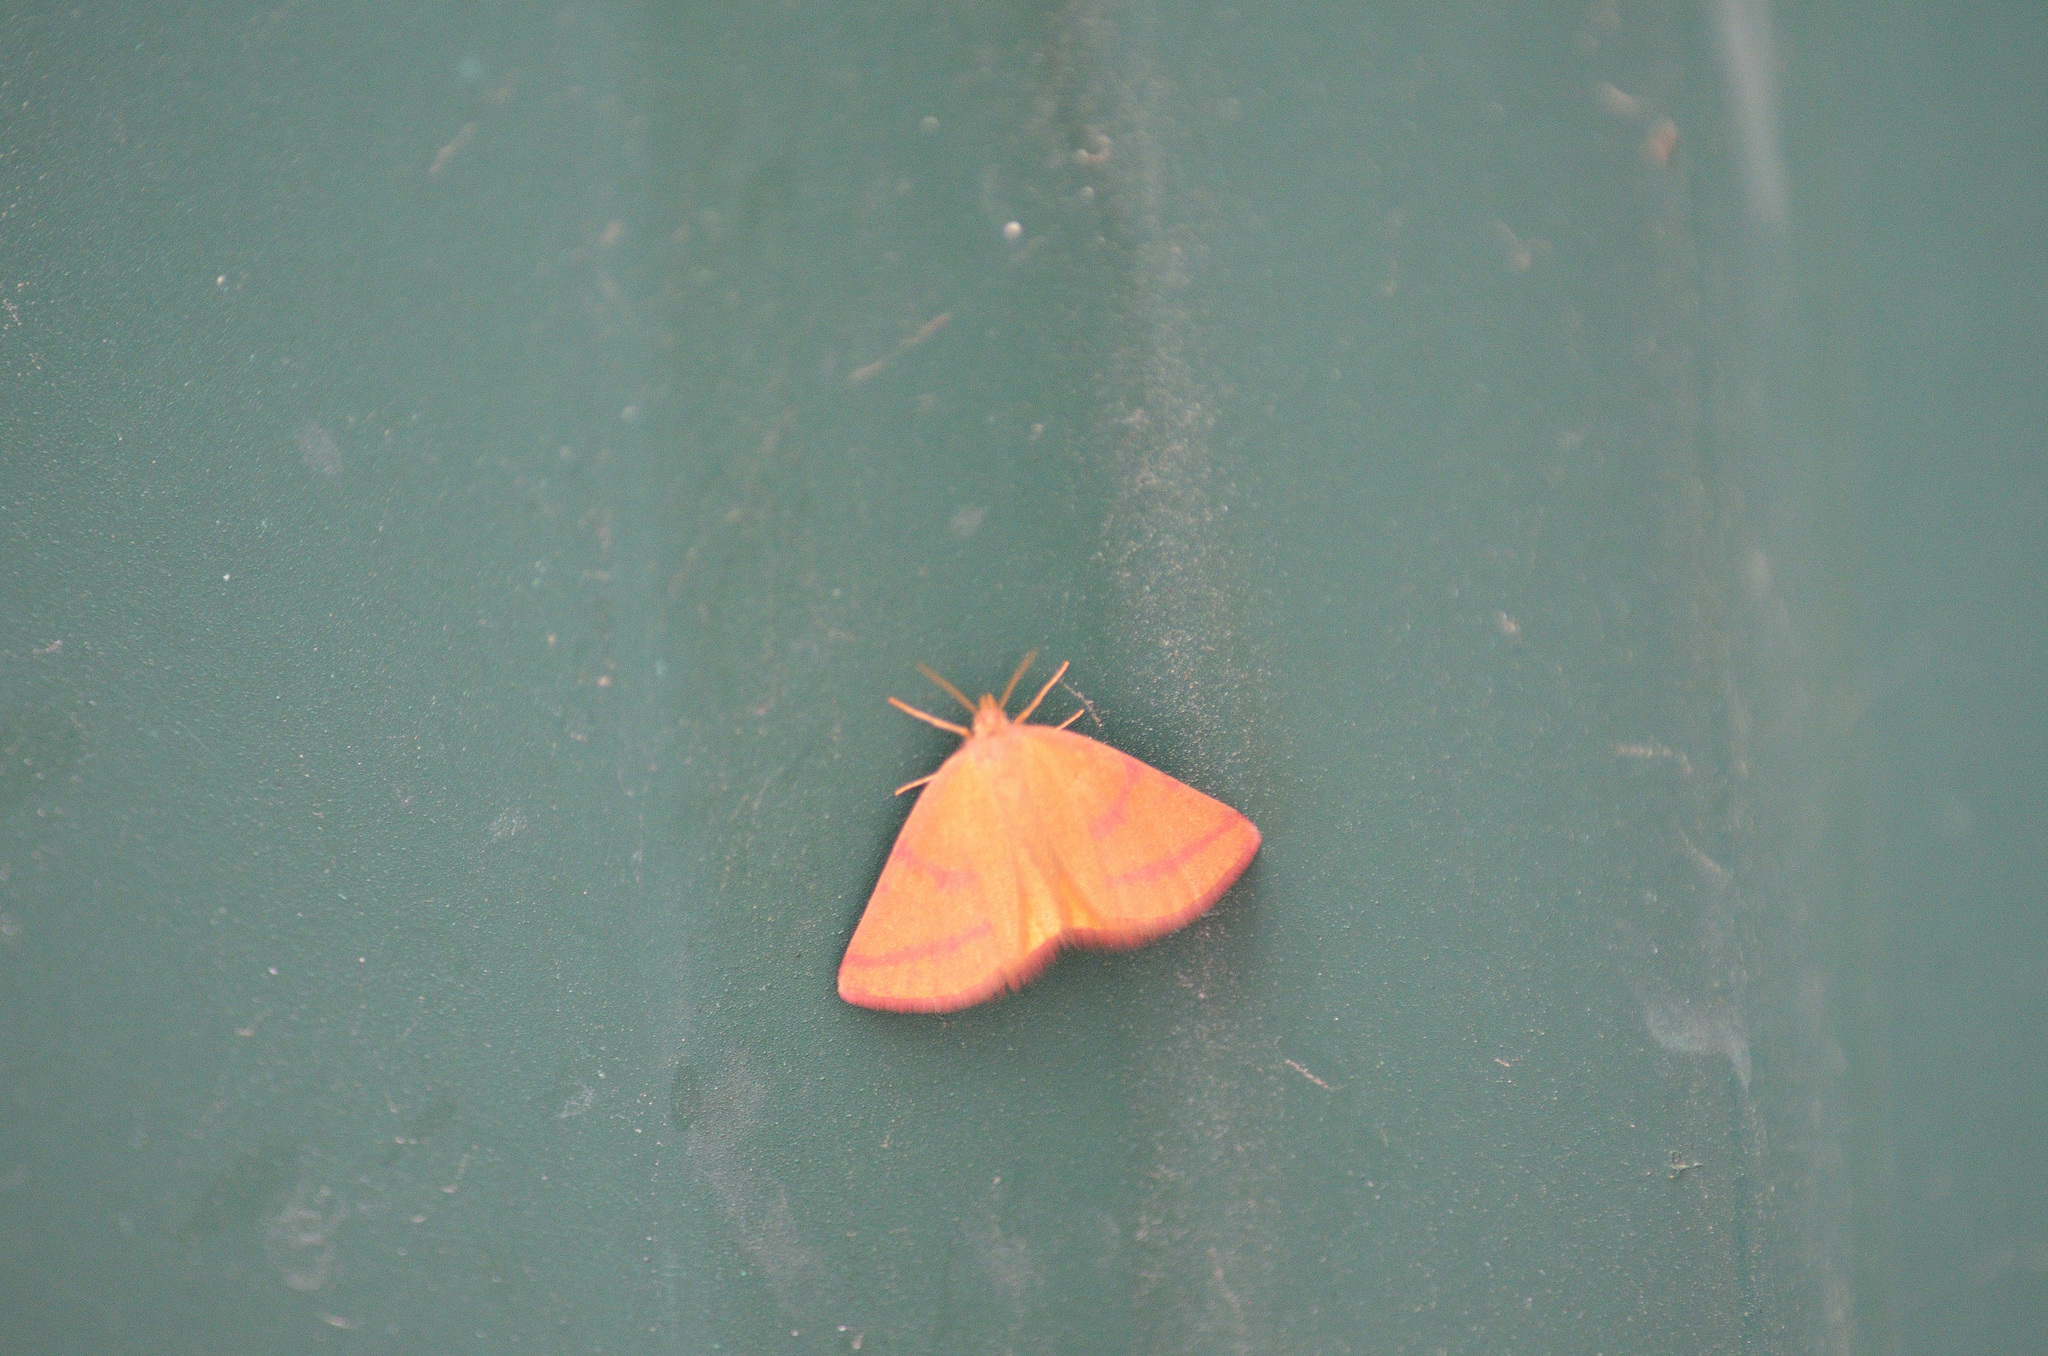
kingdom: Animalia
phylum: Arthropoda
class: Insecta
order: Lepidoptera
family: Geometridae
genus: Lythria
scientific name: Lythria purpuraria
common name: Purple-barred yellow
